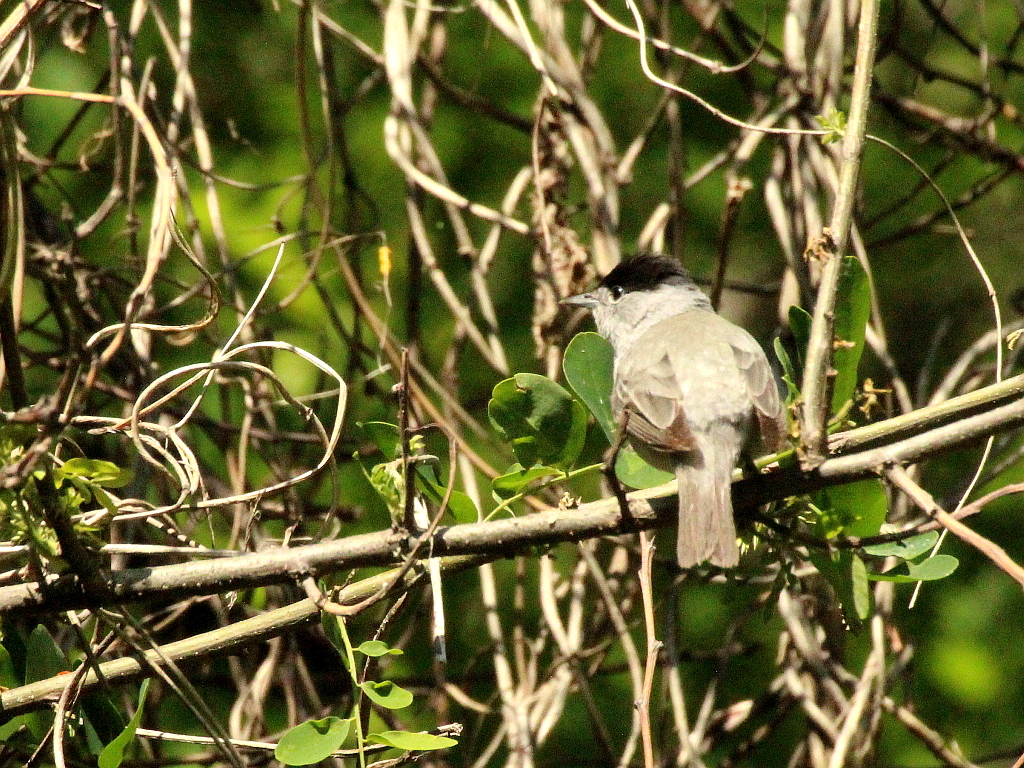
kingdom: Animalia
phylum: Chordata
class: Aves
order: Passeriformes
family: Sylviidae
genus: Sylvia
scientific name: Sylvia atricapilla
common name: Eurasian blackcap
